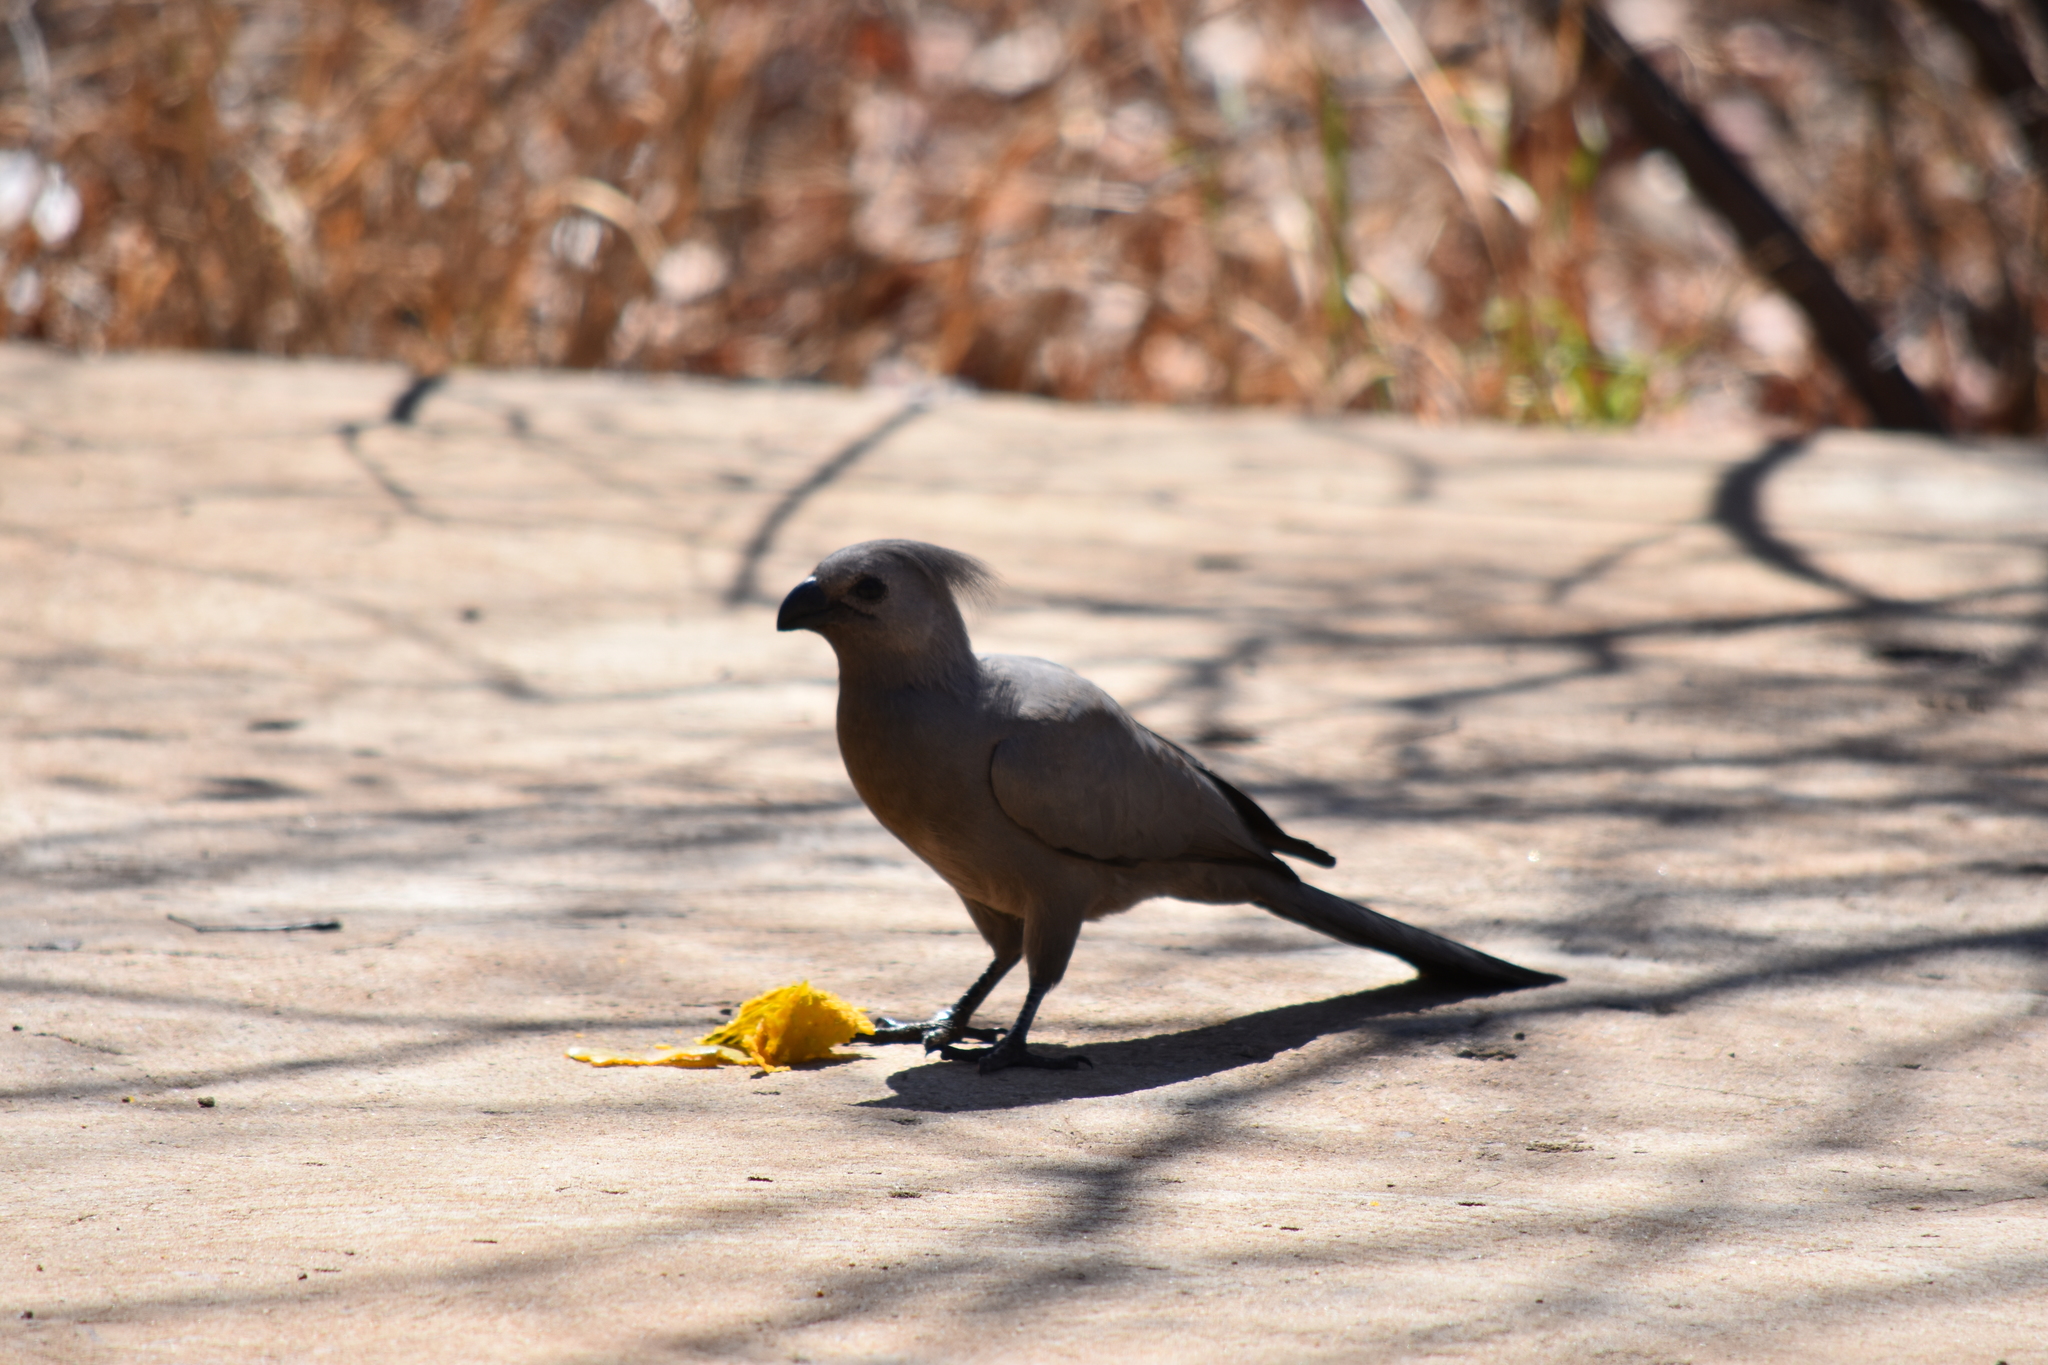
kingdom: Animalia
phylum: Chordata
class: Aves
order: Musophagiformes
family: Musophagidae
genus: Corythaixoides
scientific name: Corythaixoides concolor
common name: Grey go-away-bird
